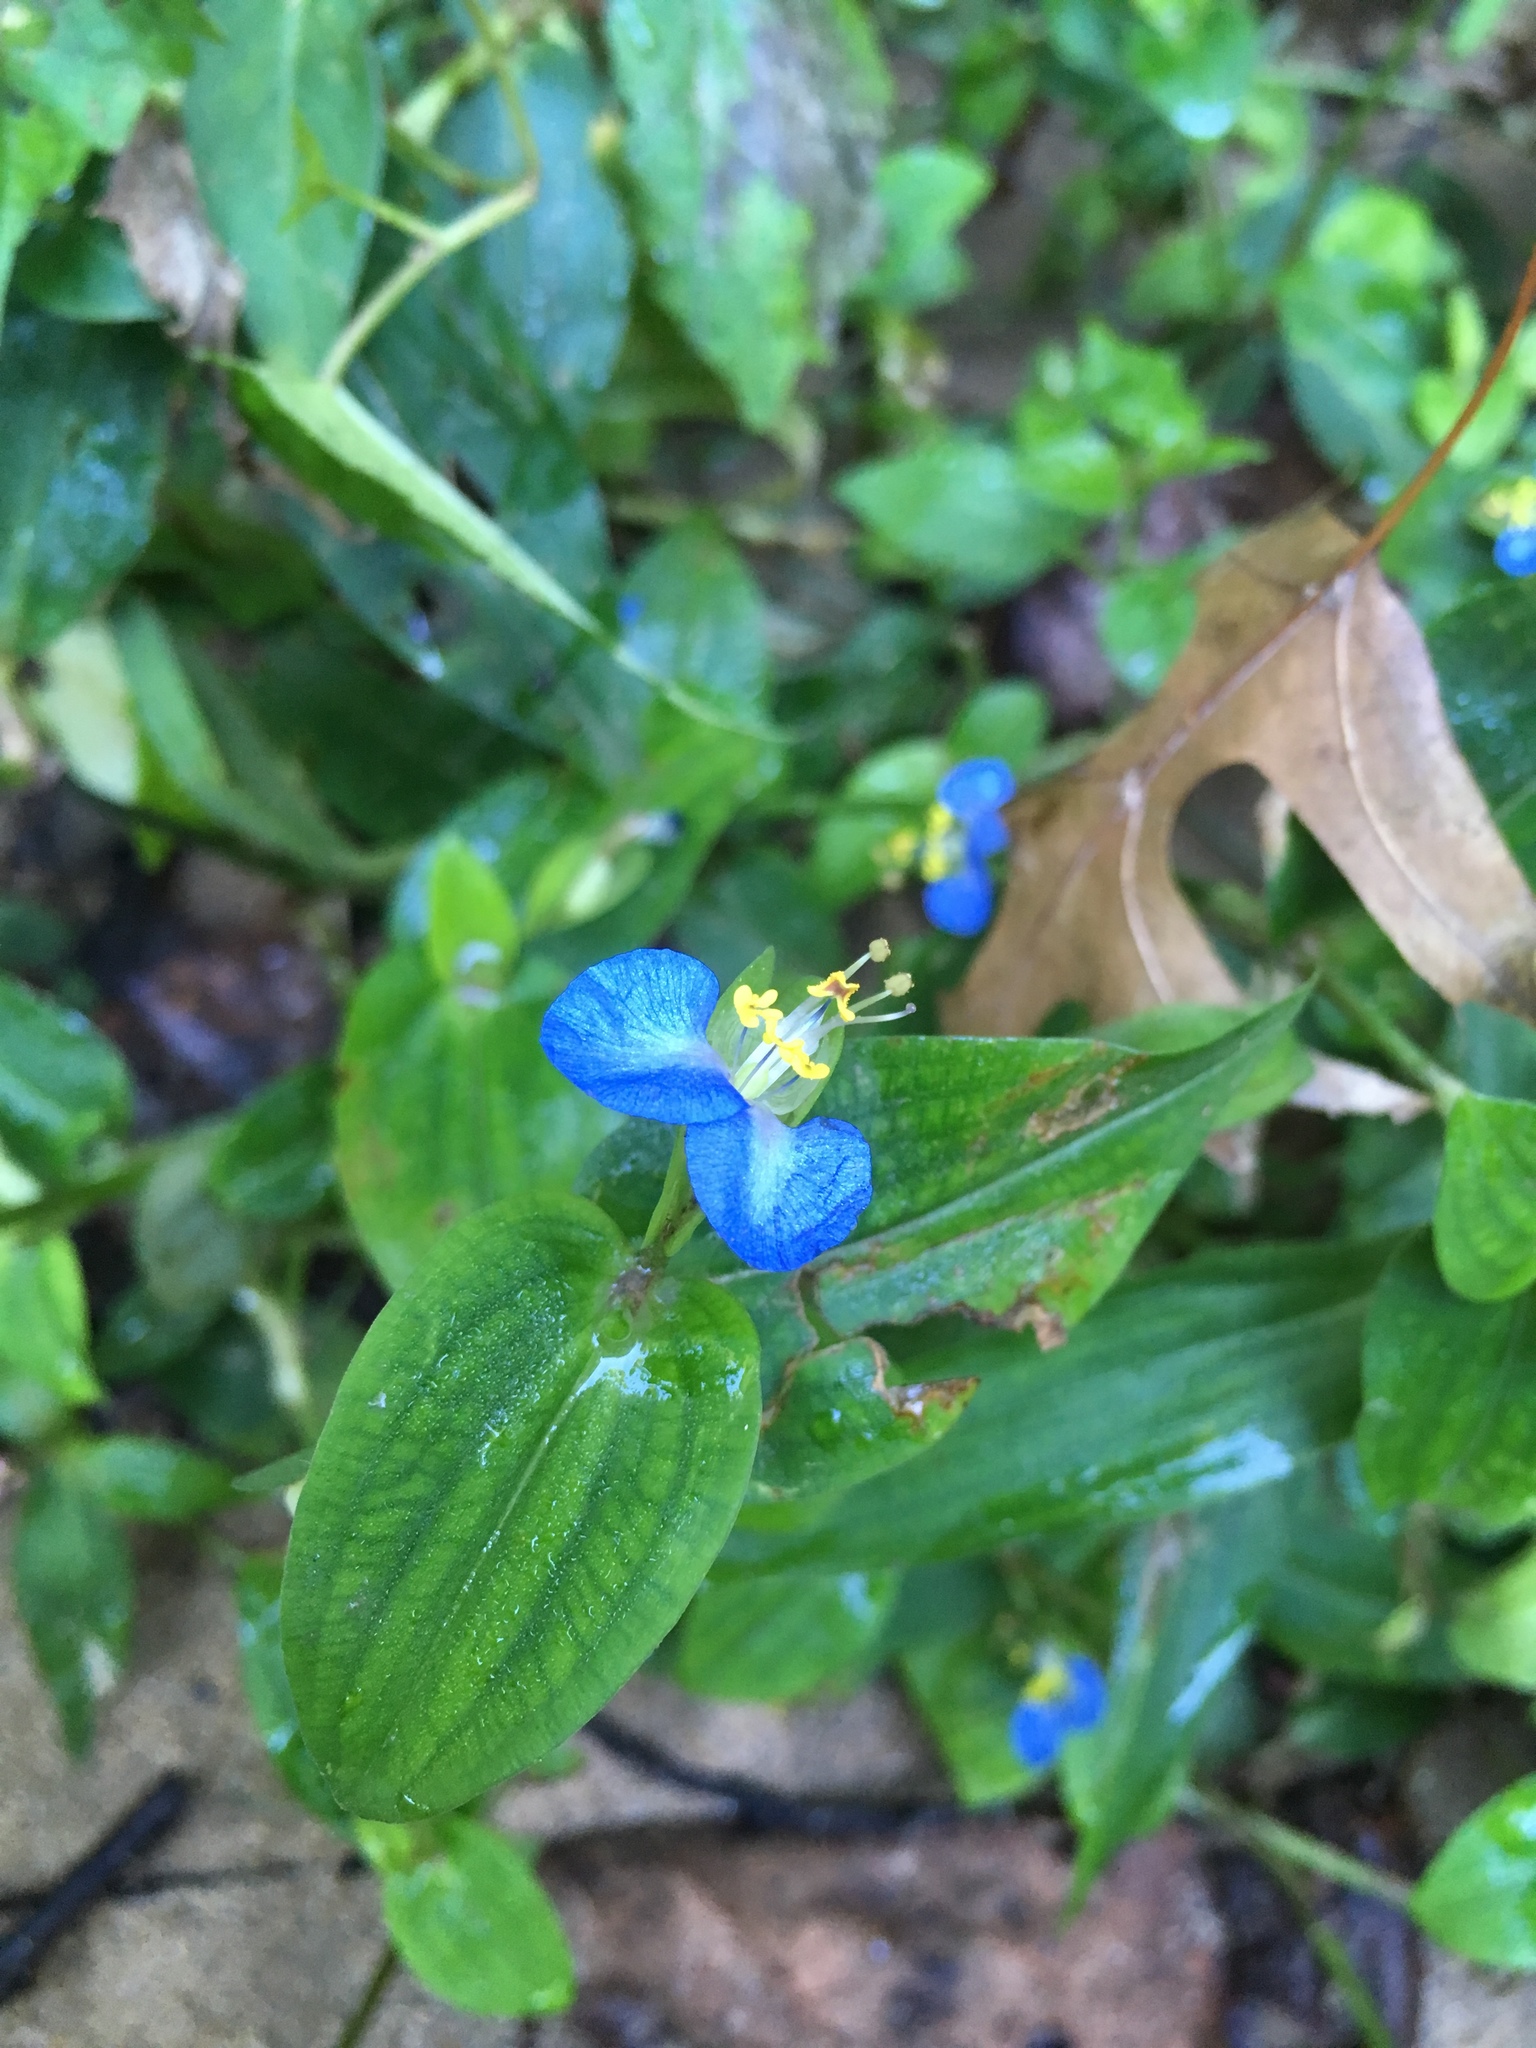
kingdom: Plantae
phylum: Tracheophyta
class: Liliopsida
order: Commelinales
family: Commelinaceae
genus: Commelina
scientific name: Commelina communis
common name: Asiatic dayflower
